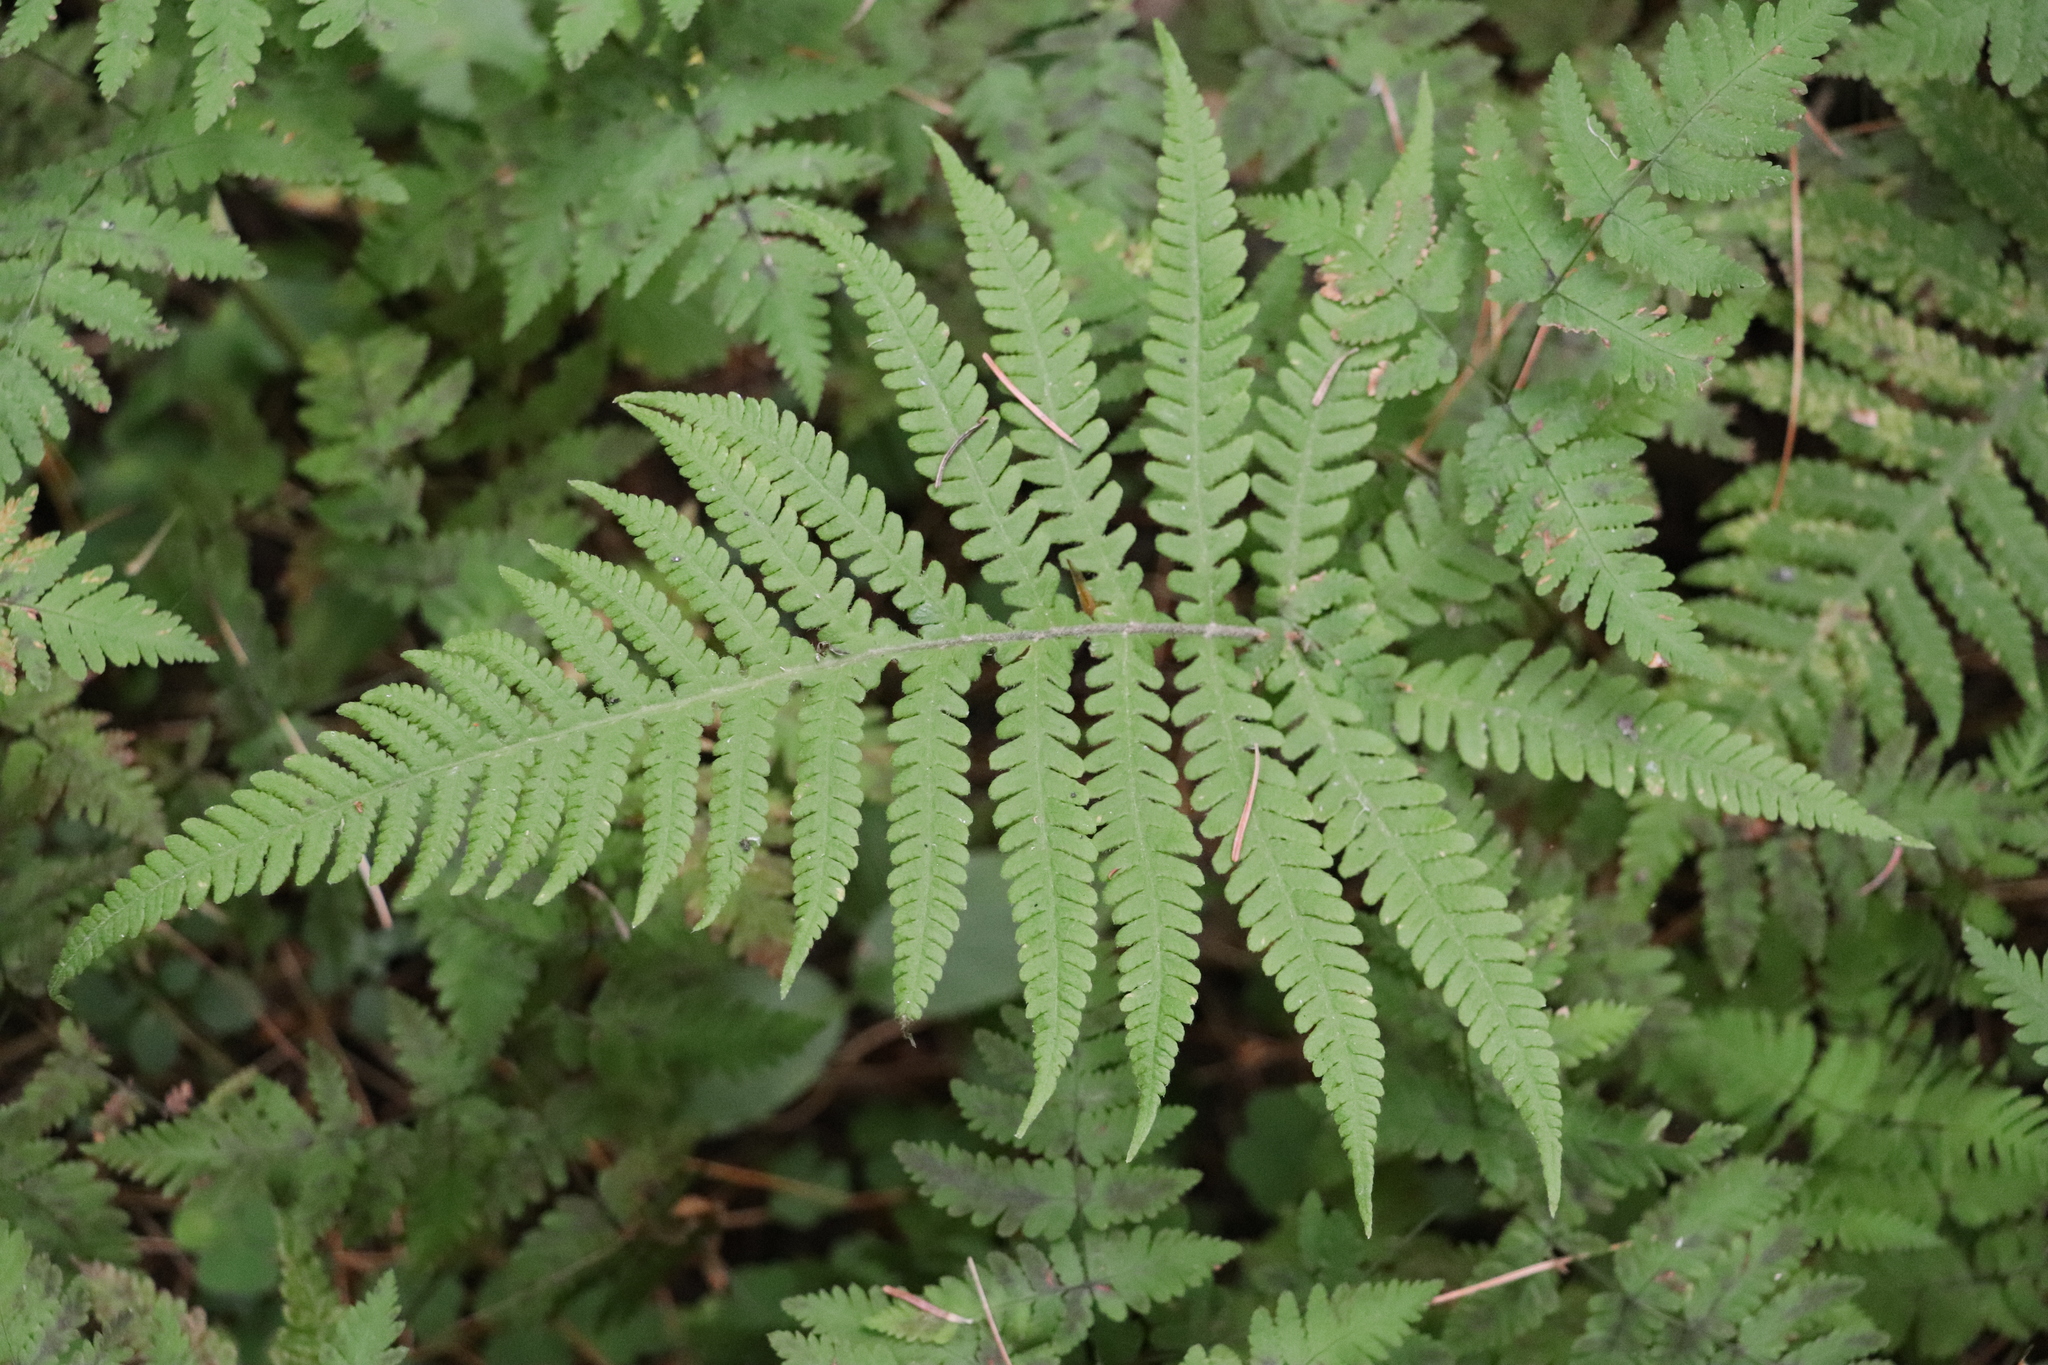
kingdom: Plantae
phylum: Tracheophyta
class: Polypodiopsida
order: Polypodiales
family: Thelypteridaceae
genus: Phegopteris
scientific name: Phegopteris connectilis
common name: Beech fern
